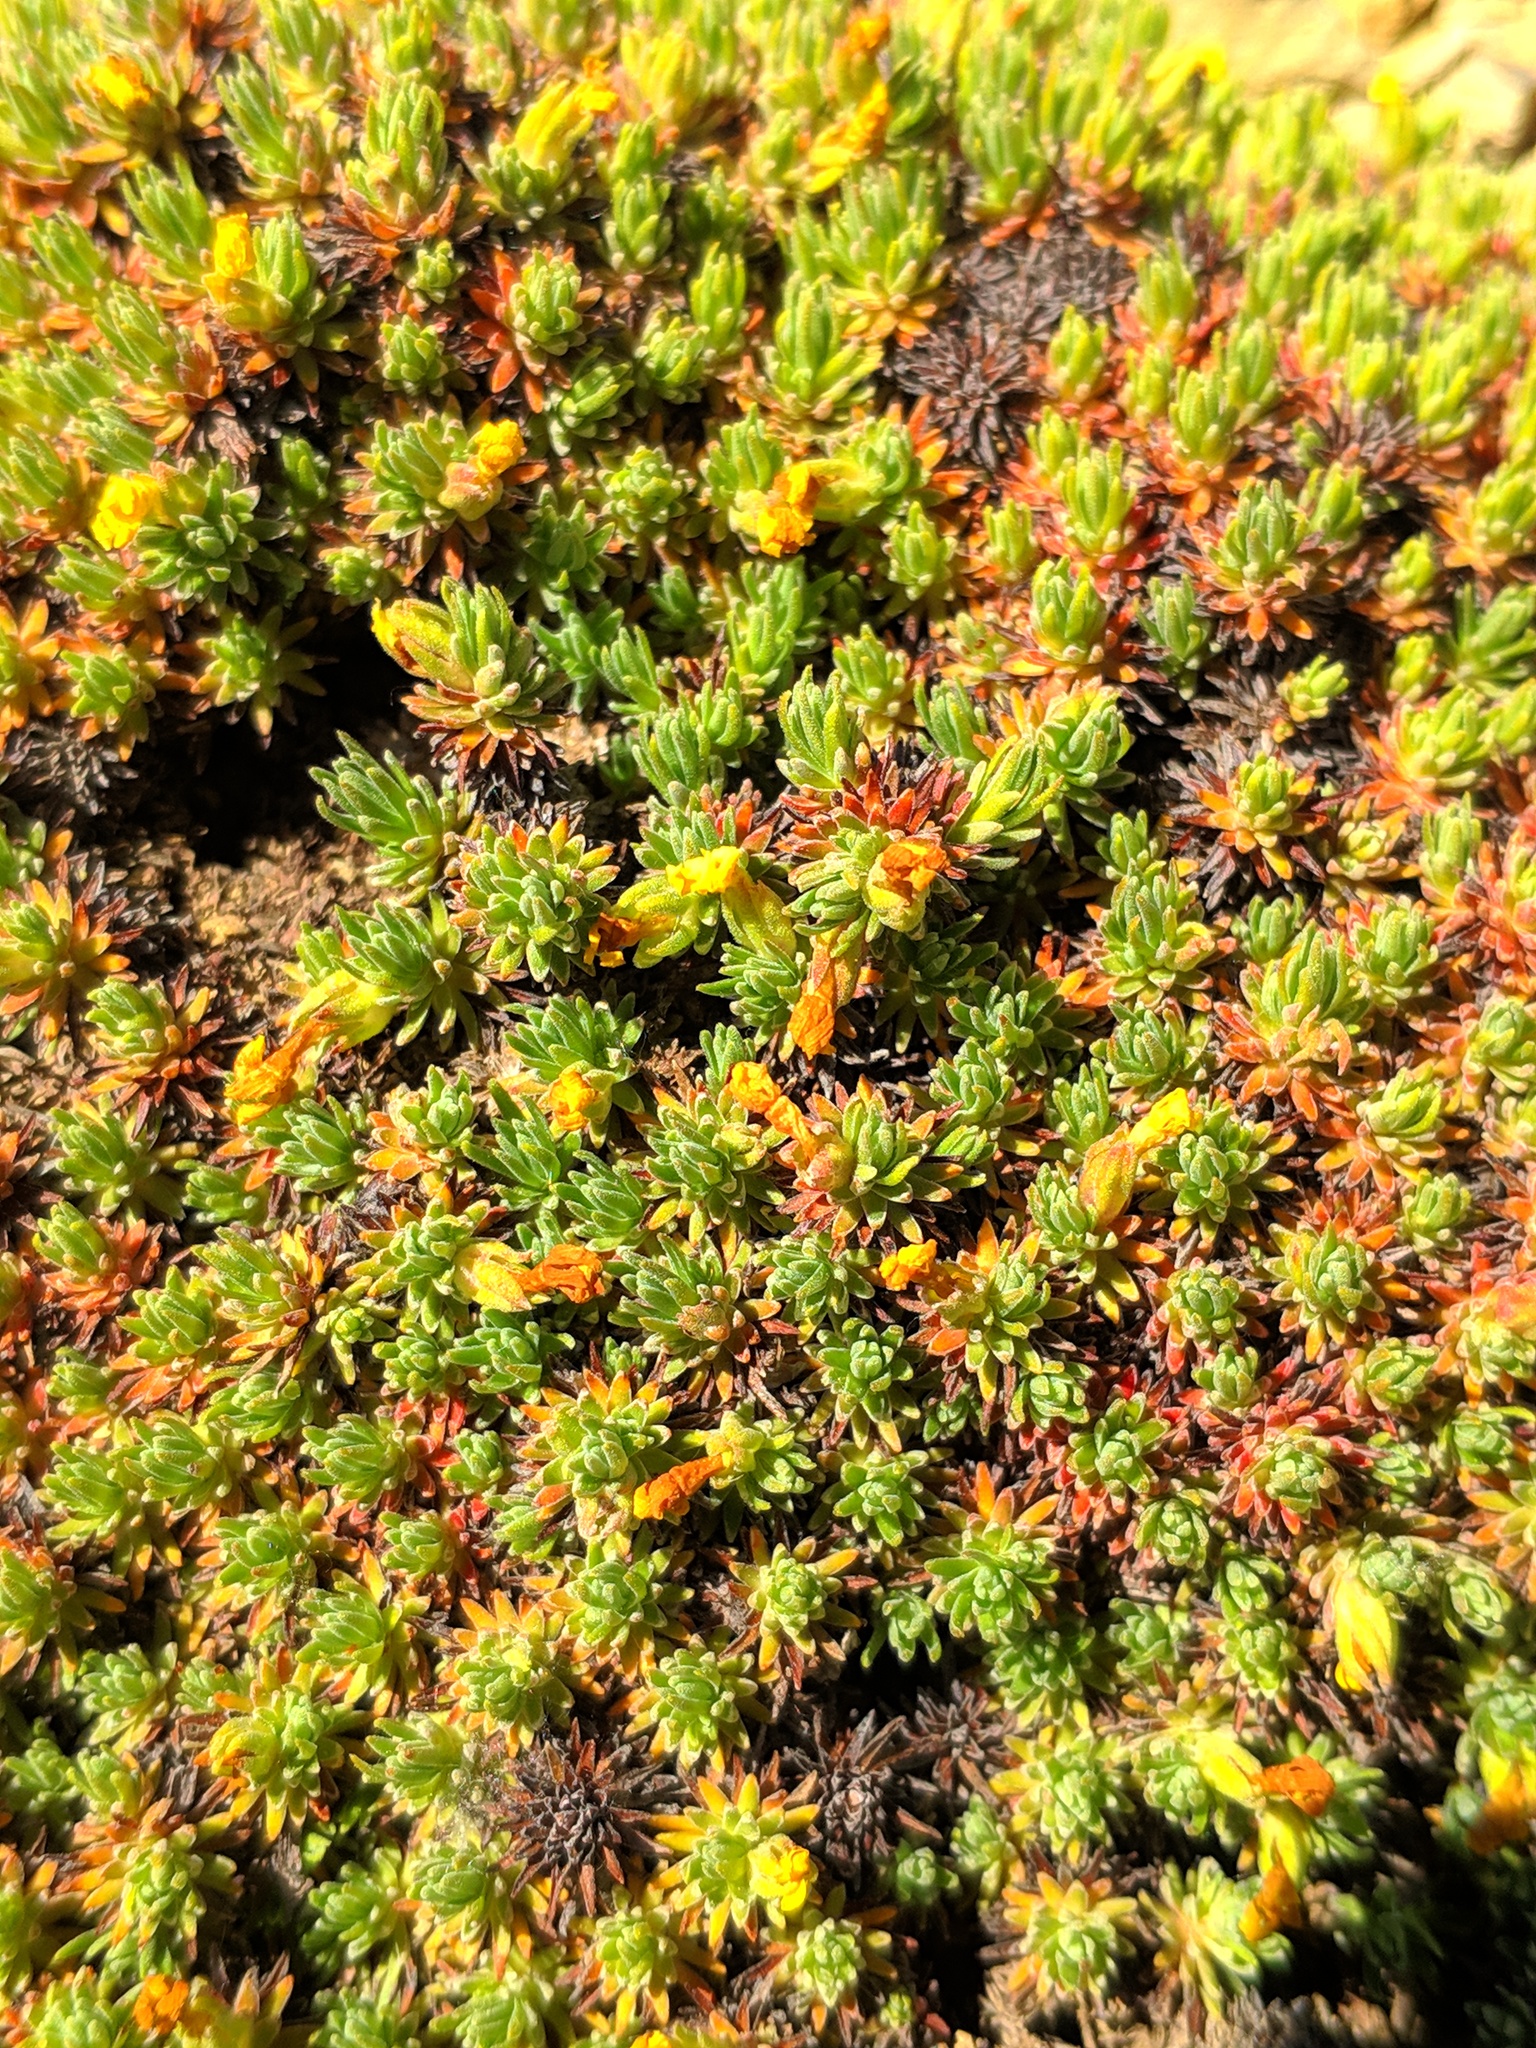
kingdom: Plantae
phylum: Tracheophyta
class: Magnoliopsida
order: Ericales
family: Primulaceae
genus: Androsace
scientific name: Androsace vitaliana
